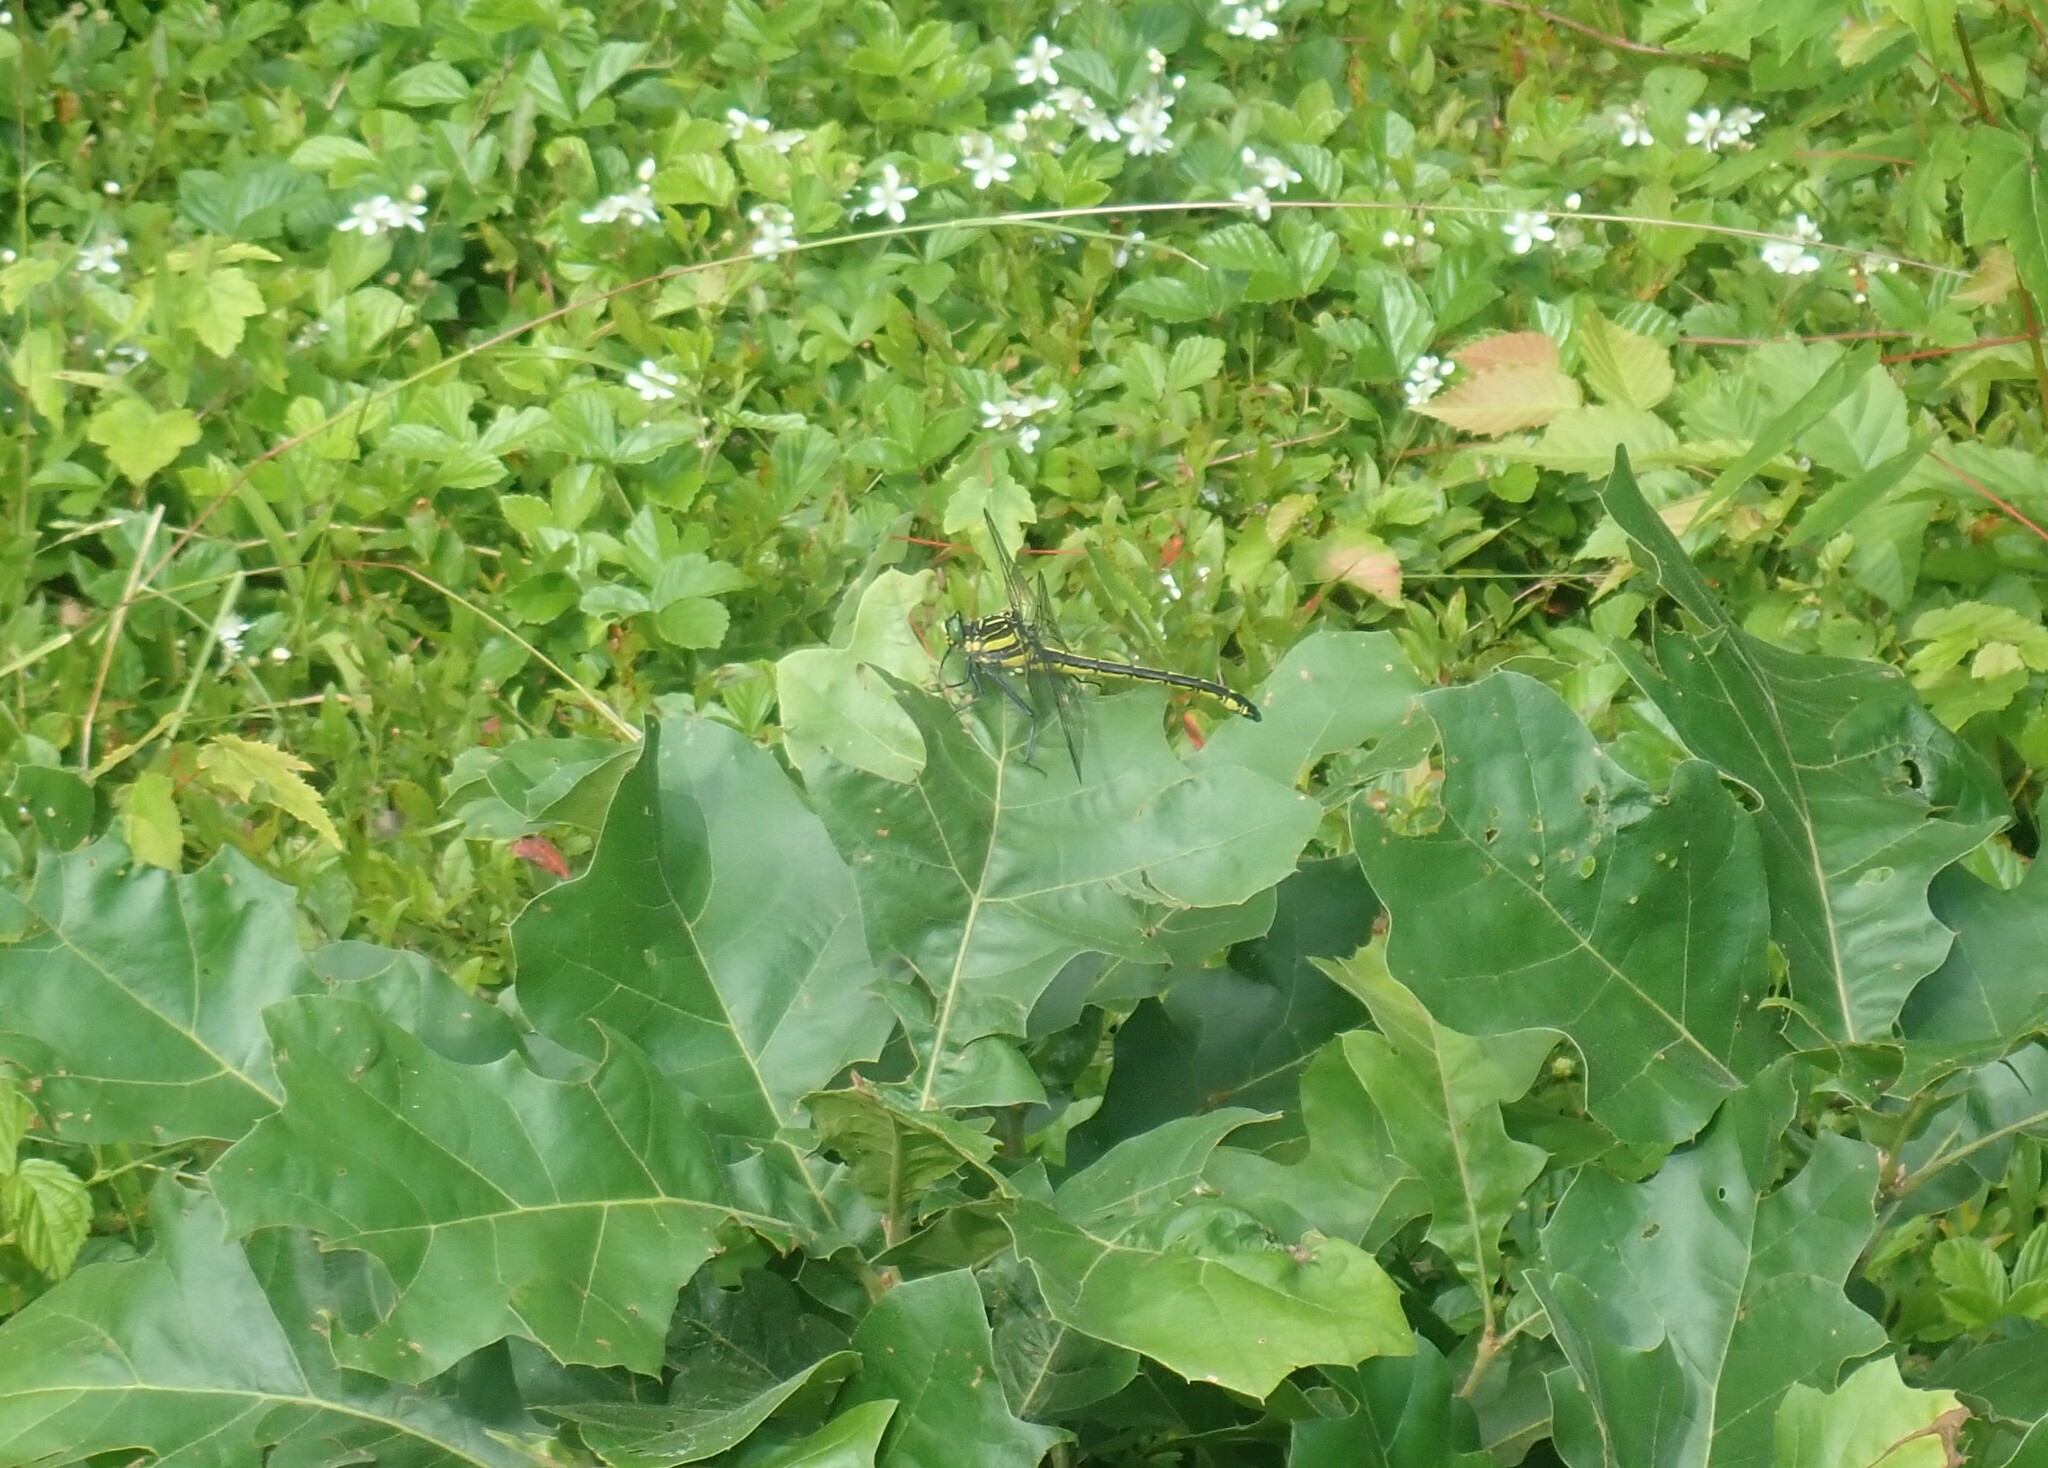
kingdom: Animalia
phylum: Arthropoda
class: Insecta
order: Odonata
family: Gomphidae
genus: Hagenius
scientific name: Hagenius brevistylus
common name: Dragonhunter
